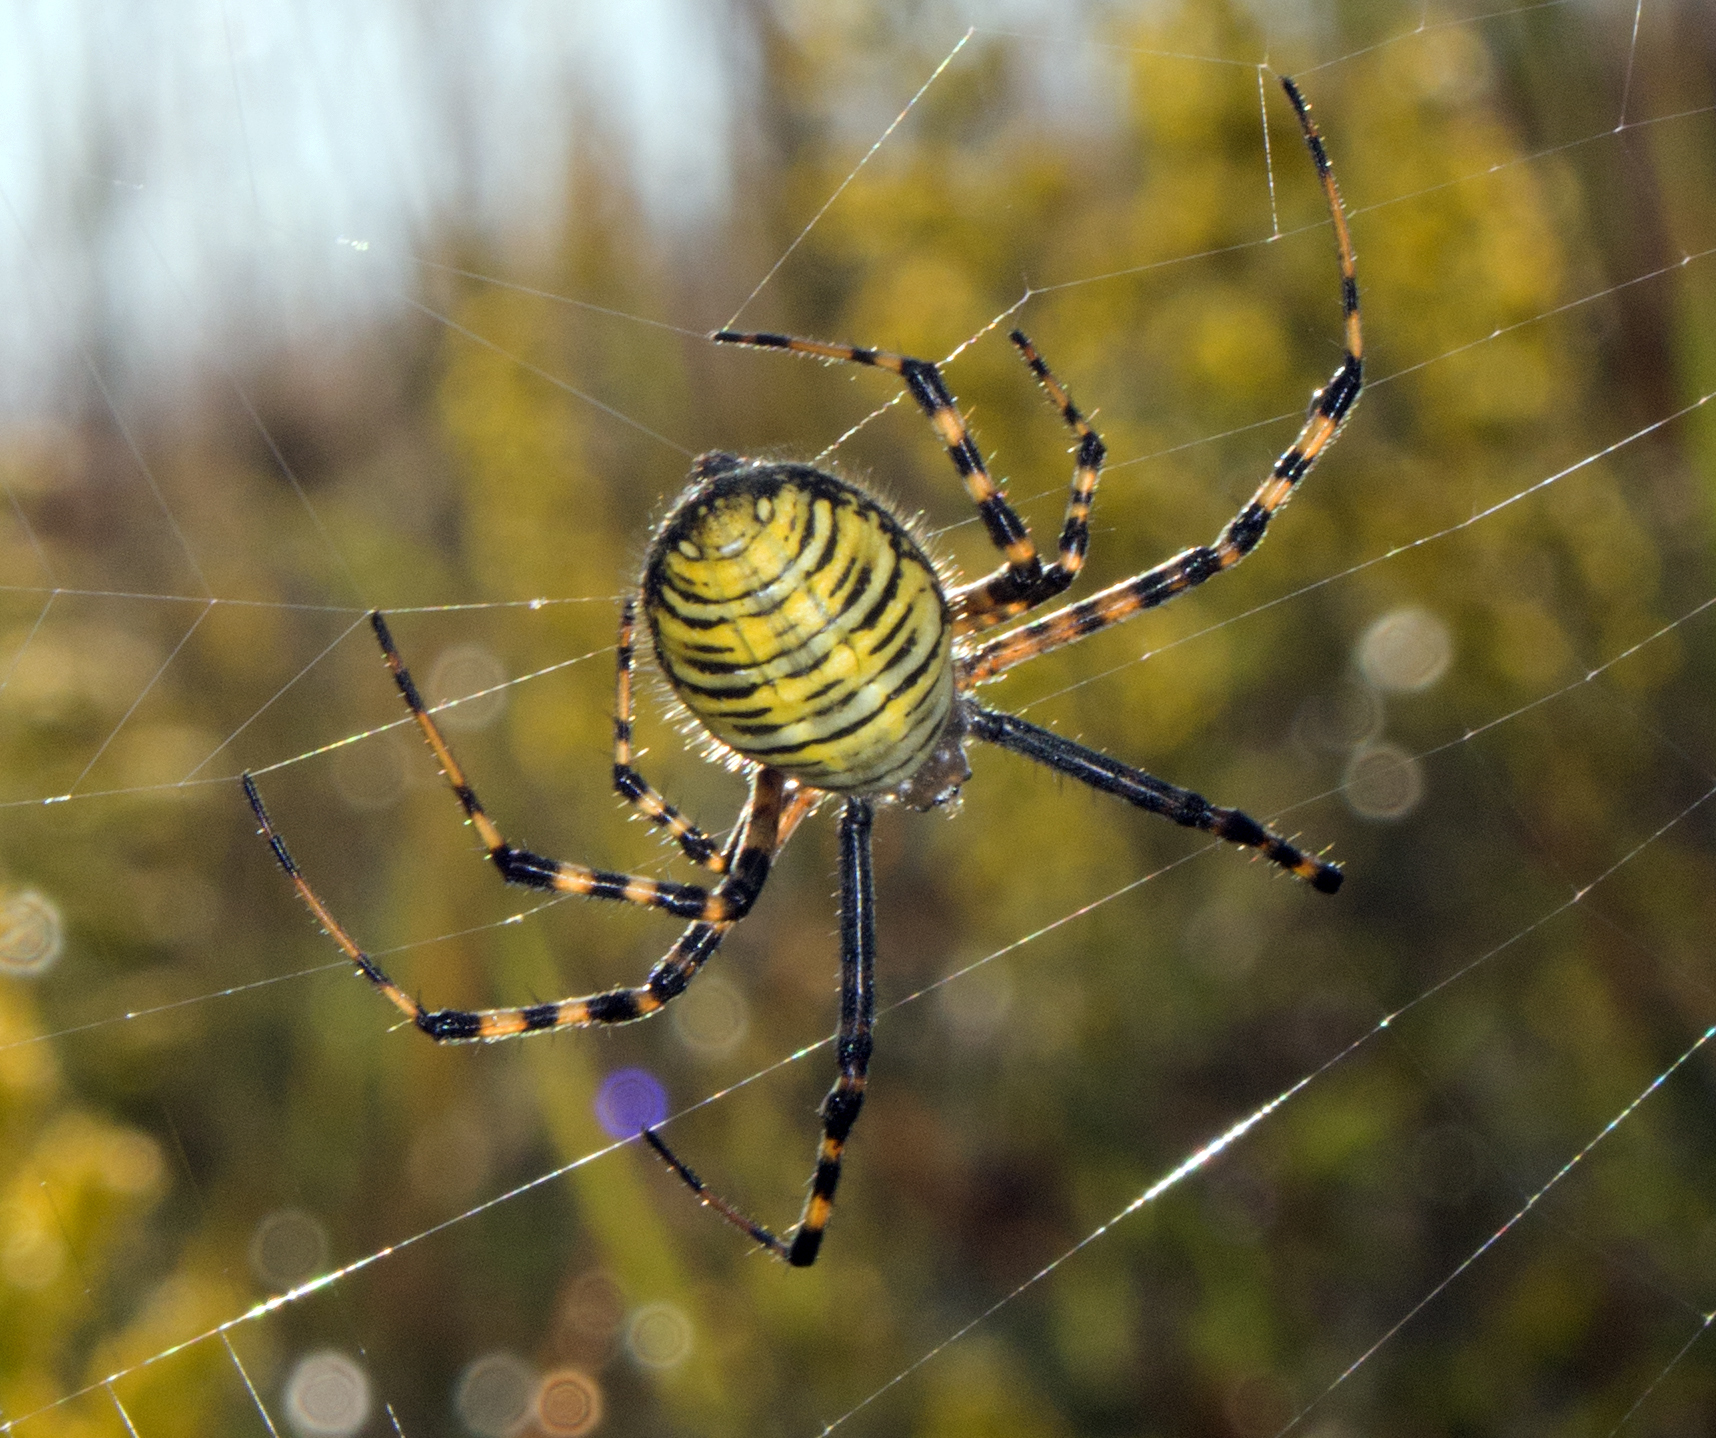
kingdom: Animalia
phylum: Arthropoda
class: Arachnida
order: Araneae
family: Araneidae
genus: Argiope
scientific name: Argiope trifasciata
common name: Banded garden spider
